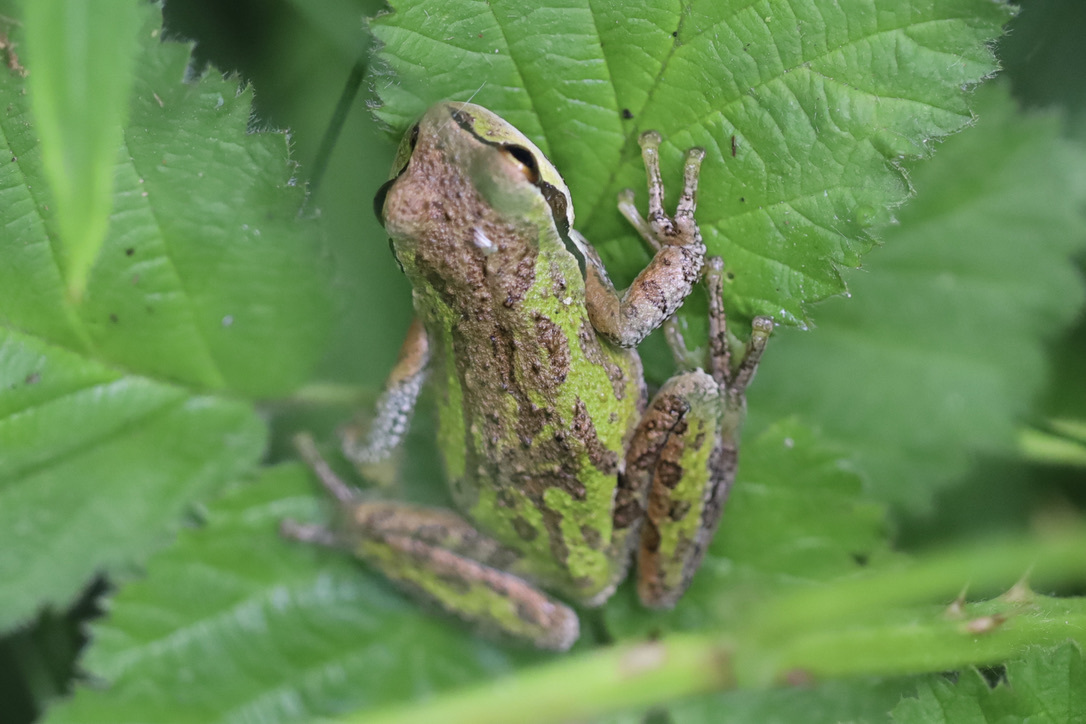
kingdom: Animalia
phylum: Chordata
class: Amphibia
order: Anura
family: Hylidae
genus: Pseudacris
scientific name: Pseudacris regilla
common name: Pacific chorus frog
